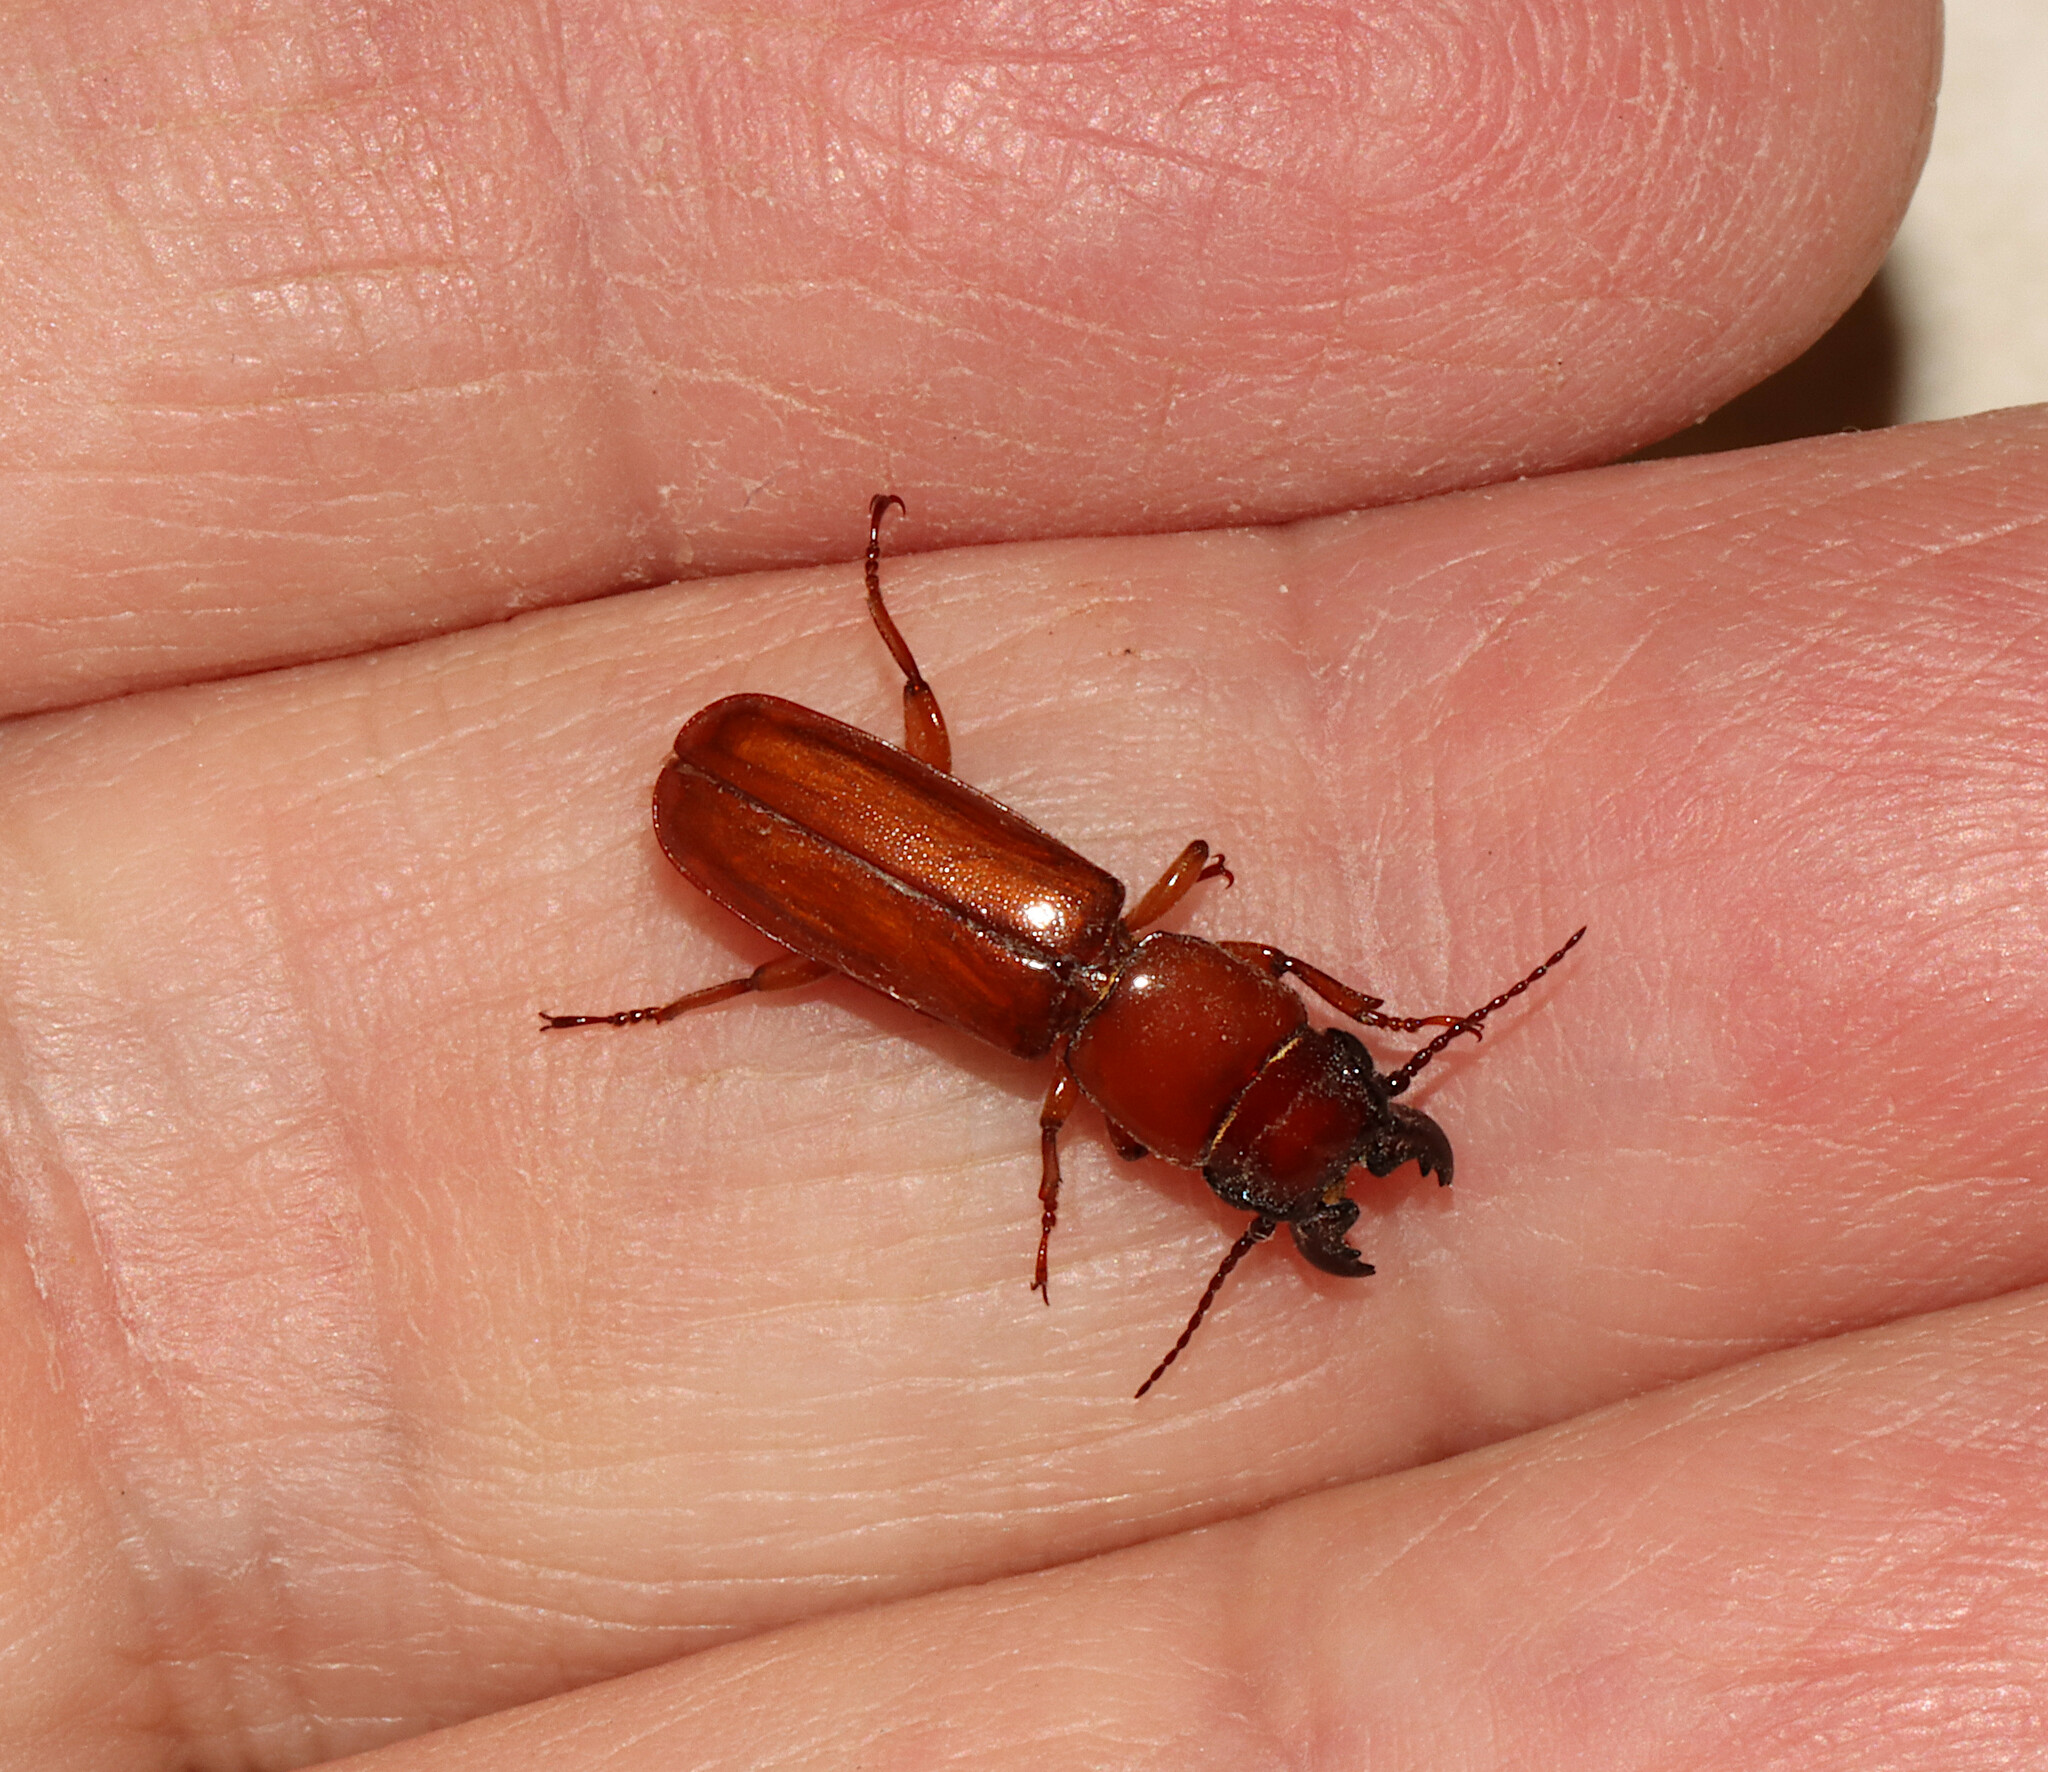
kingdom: Animalia
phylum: Arthropoda
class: Insecta
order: Coleoptera
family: Cerambycidae
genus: Parandra
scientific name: Parandra polita
